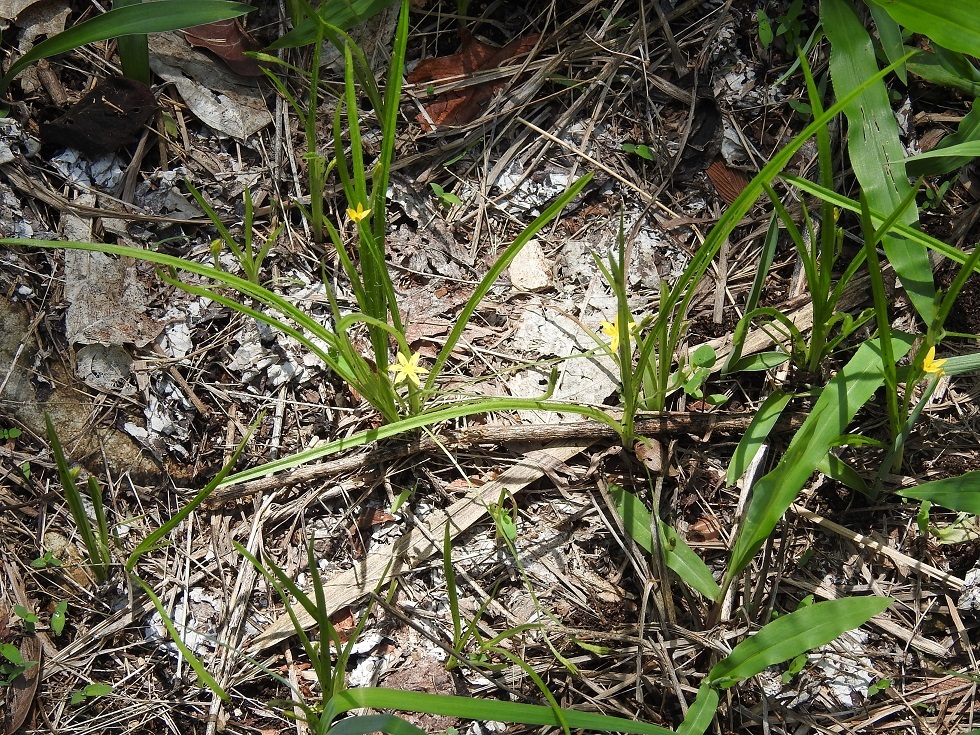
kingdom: Plantae
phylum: Tracheophyta
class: Liliopsida
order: Asparagales
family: Hypoxidaceae
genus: Hypoxis
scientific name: Hypoxis decumbens
